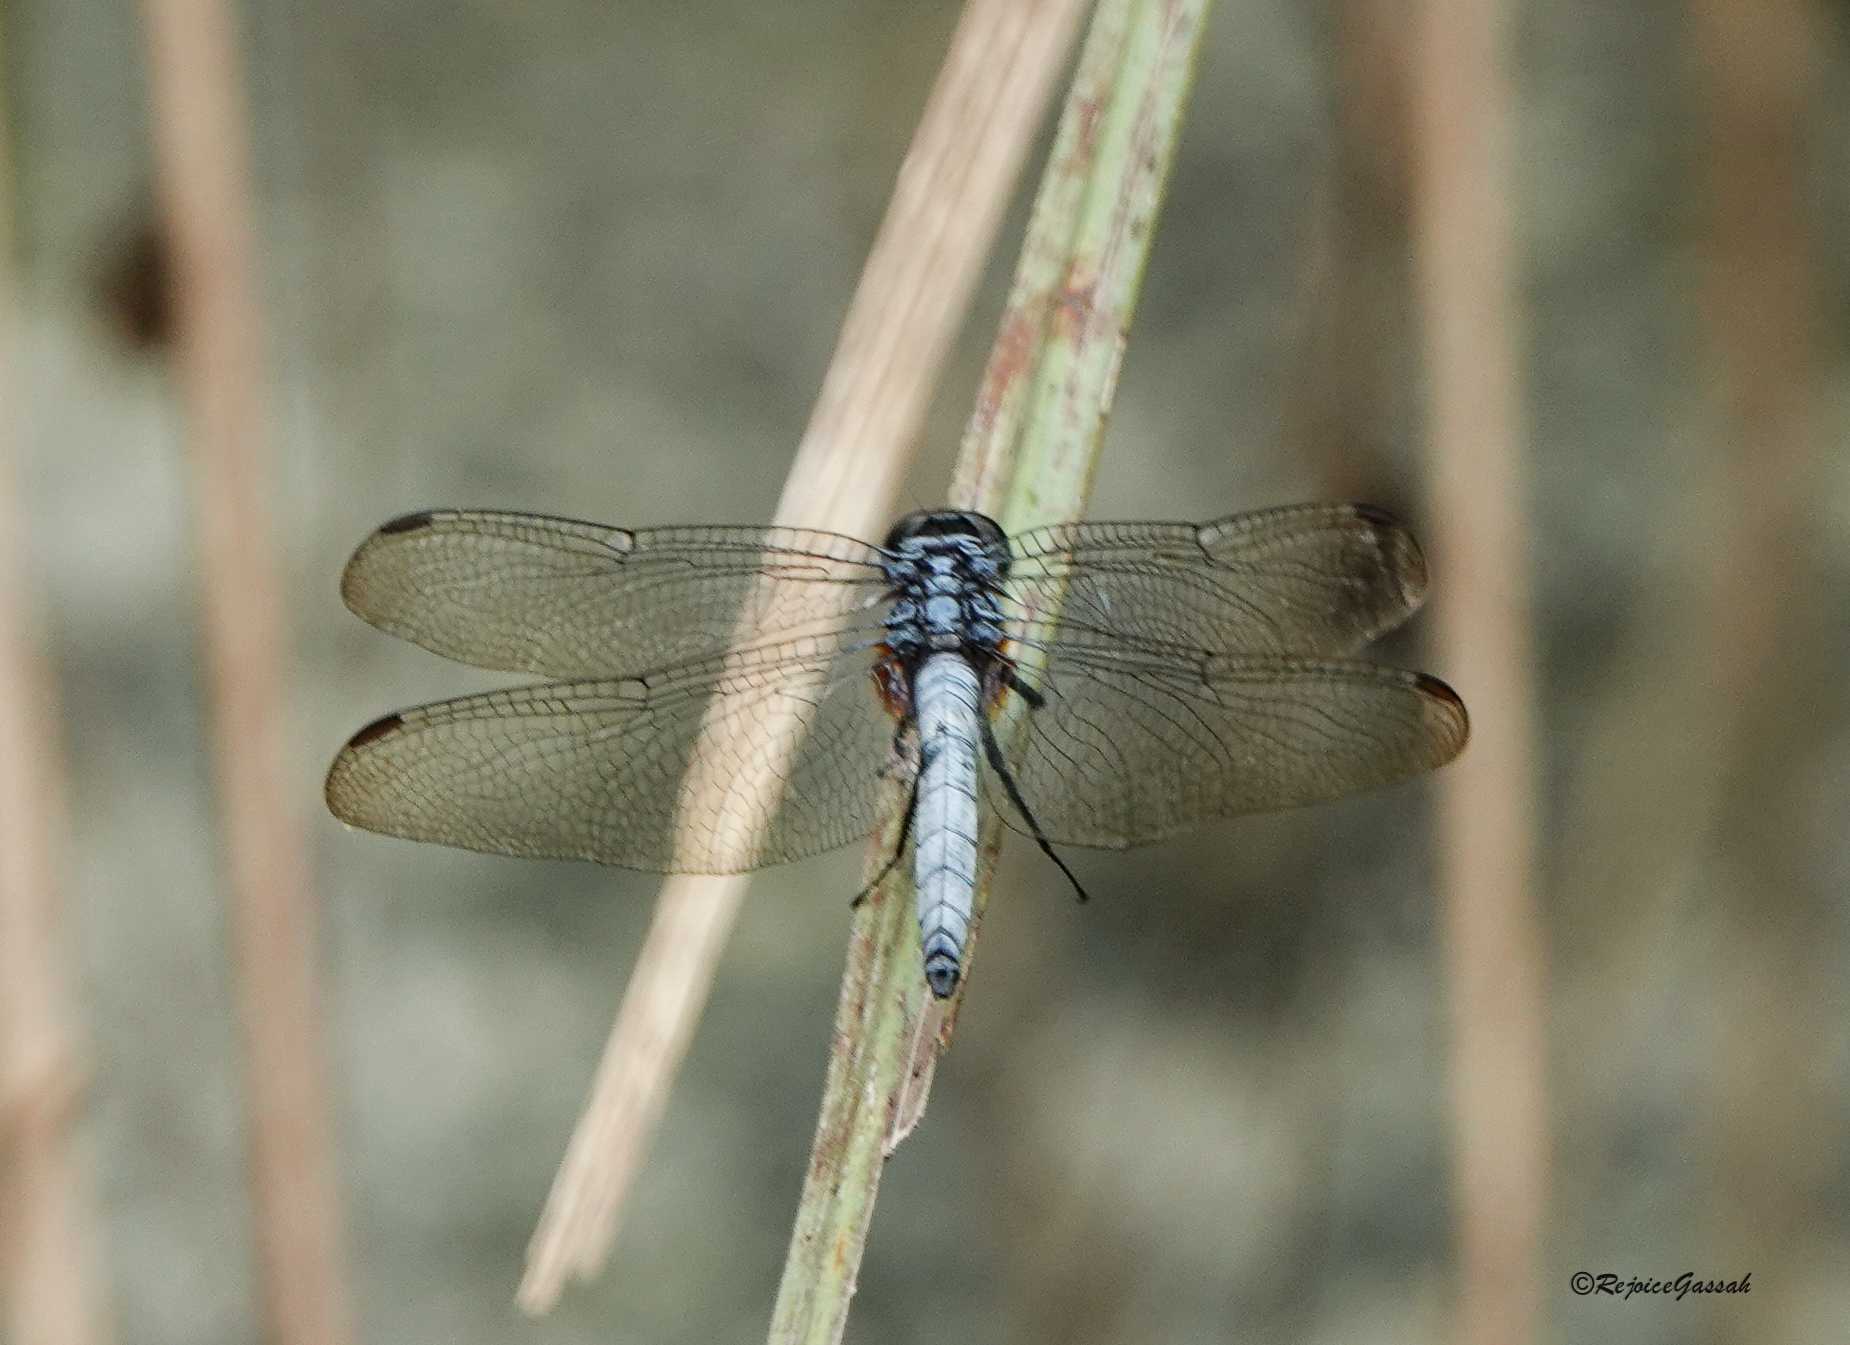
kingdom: Animalia
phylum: Arthropoda
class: Insecta
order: Odonata
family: Libellulidae
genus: Orthetrum
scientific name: Orthetrum glaucum
